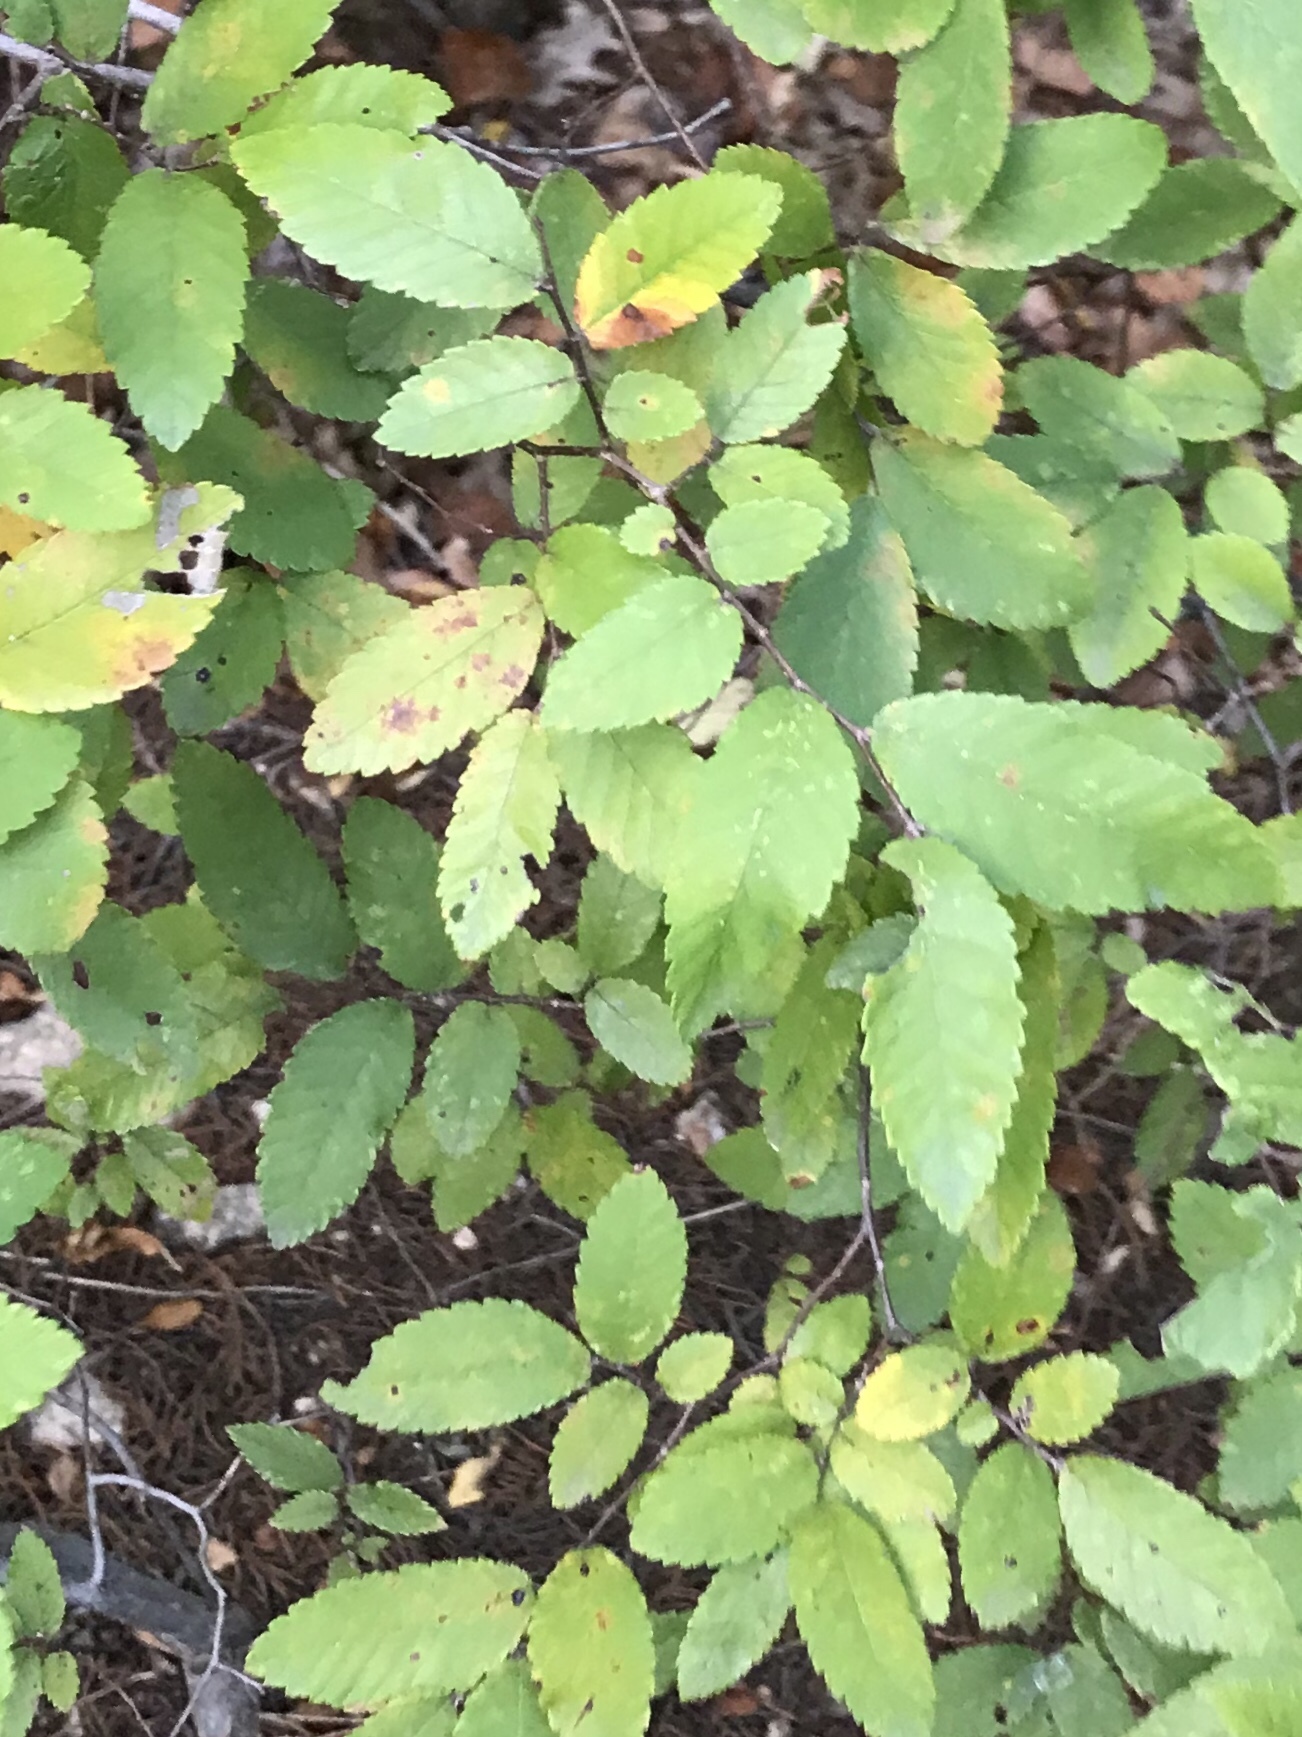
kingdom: Plantae
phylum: Tracheophyta
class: Magnoliopsida
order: Rosales
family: Ulmaceae
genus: Ulmus
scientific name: Ulmus crassifolia
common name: Basket elm
